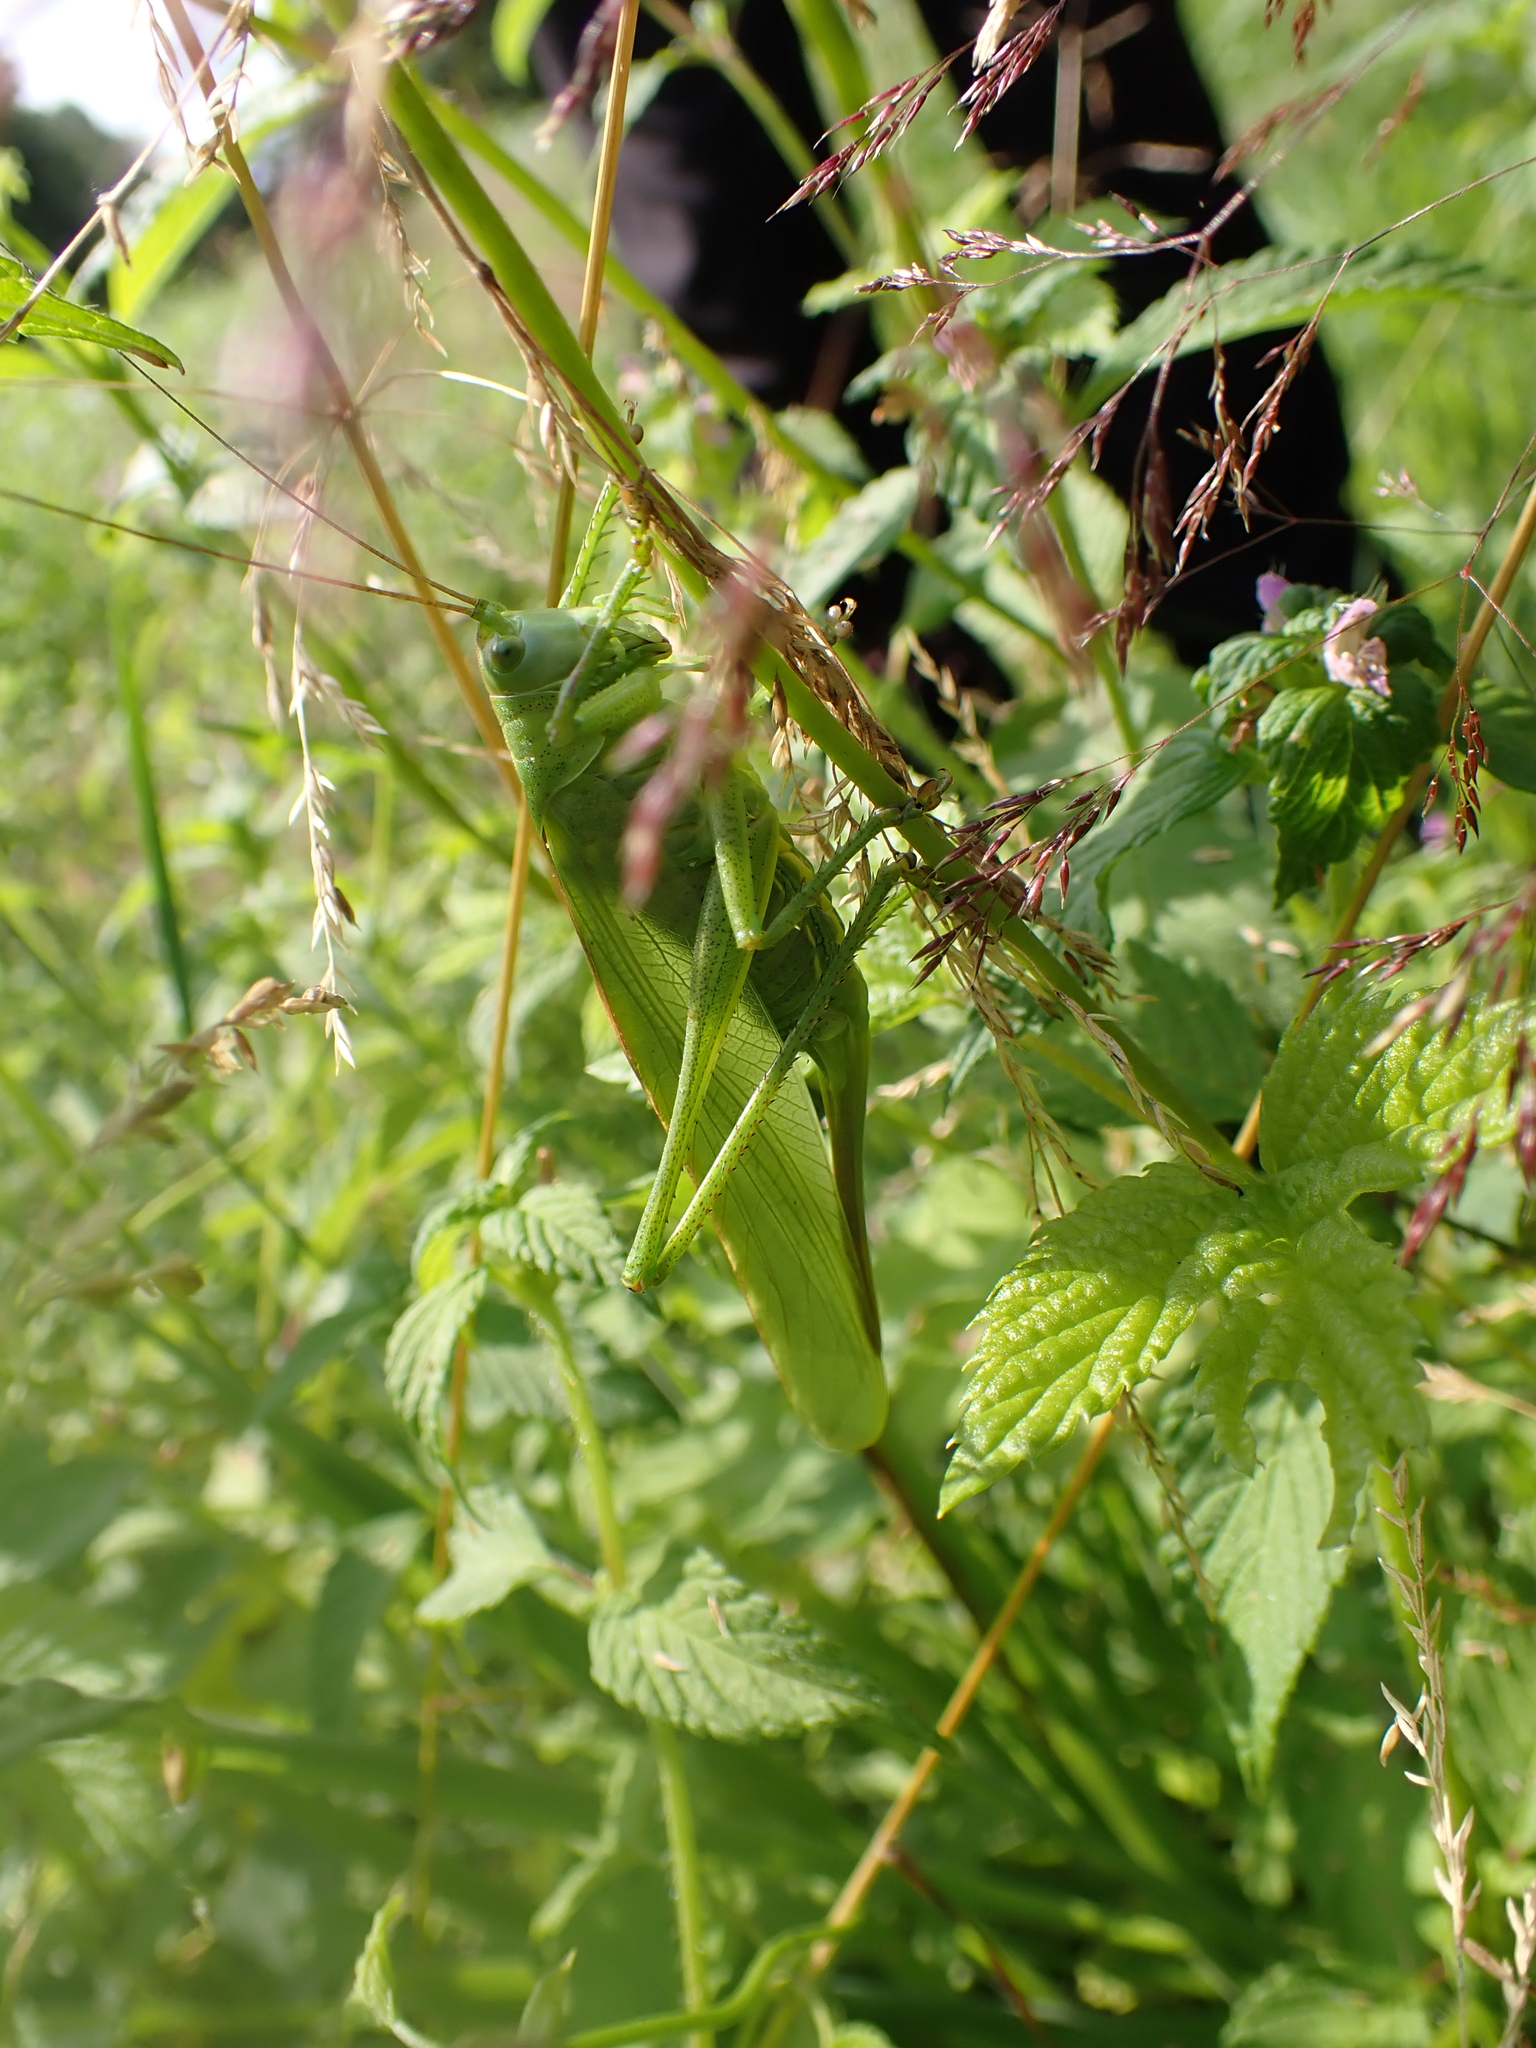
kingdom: Animalia
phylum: Arthropoda
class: Insecta
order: Orthoptera
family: Tettigoniidae
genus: Tettigonia
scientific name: Tettigonia viridissima
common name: Great green bush-cricket
